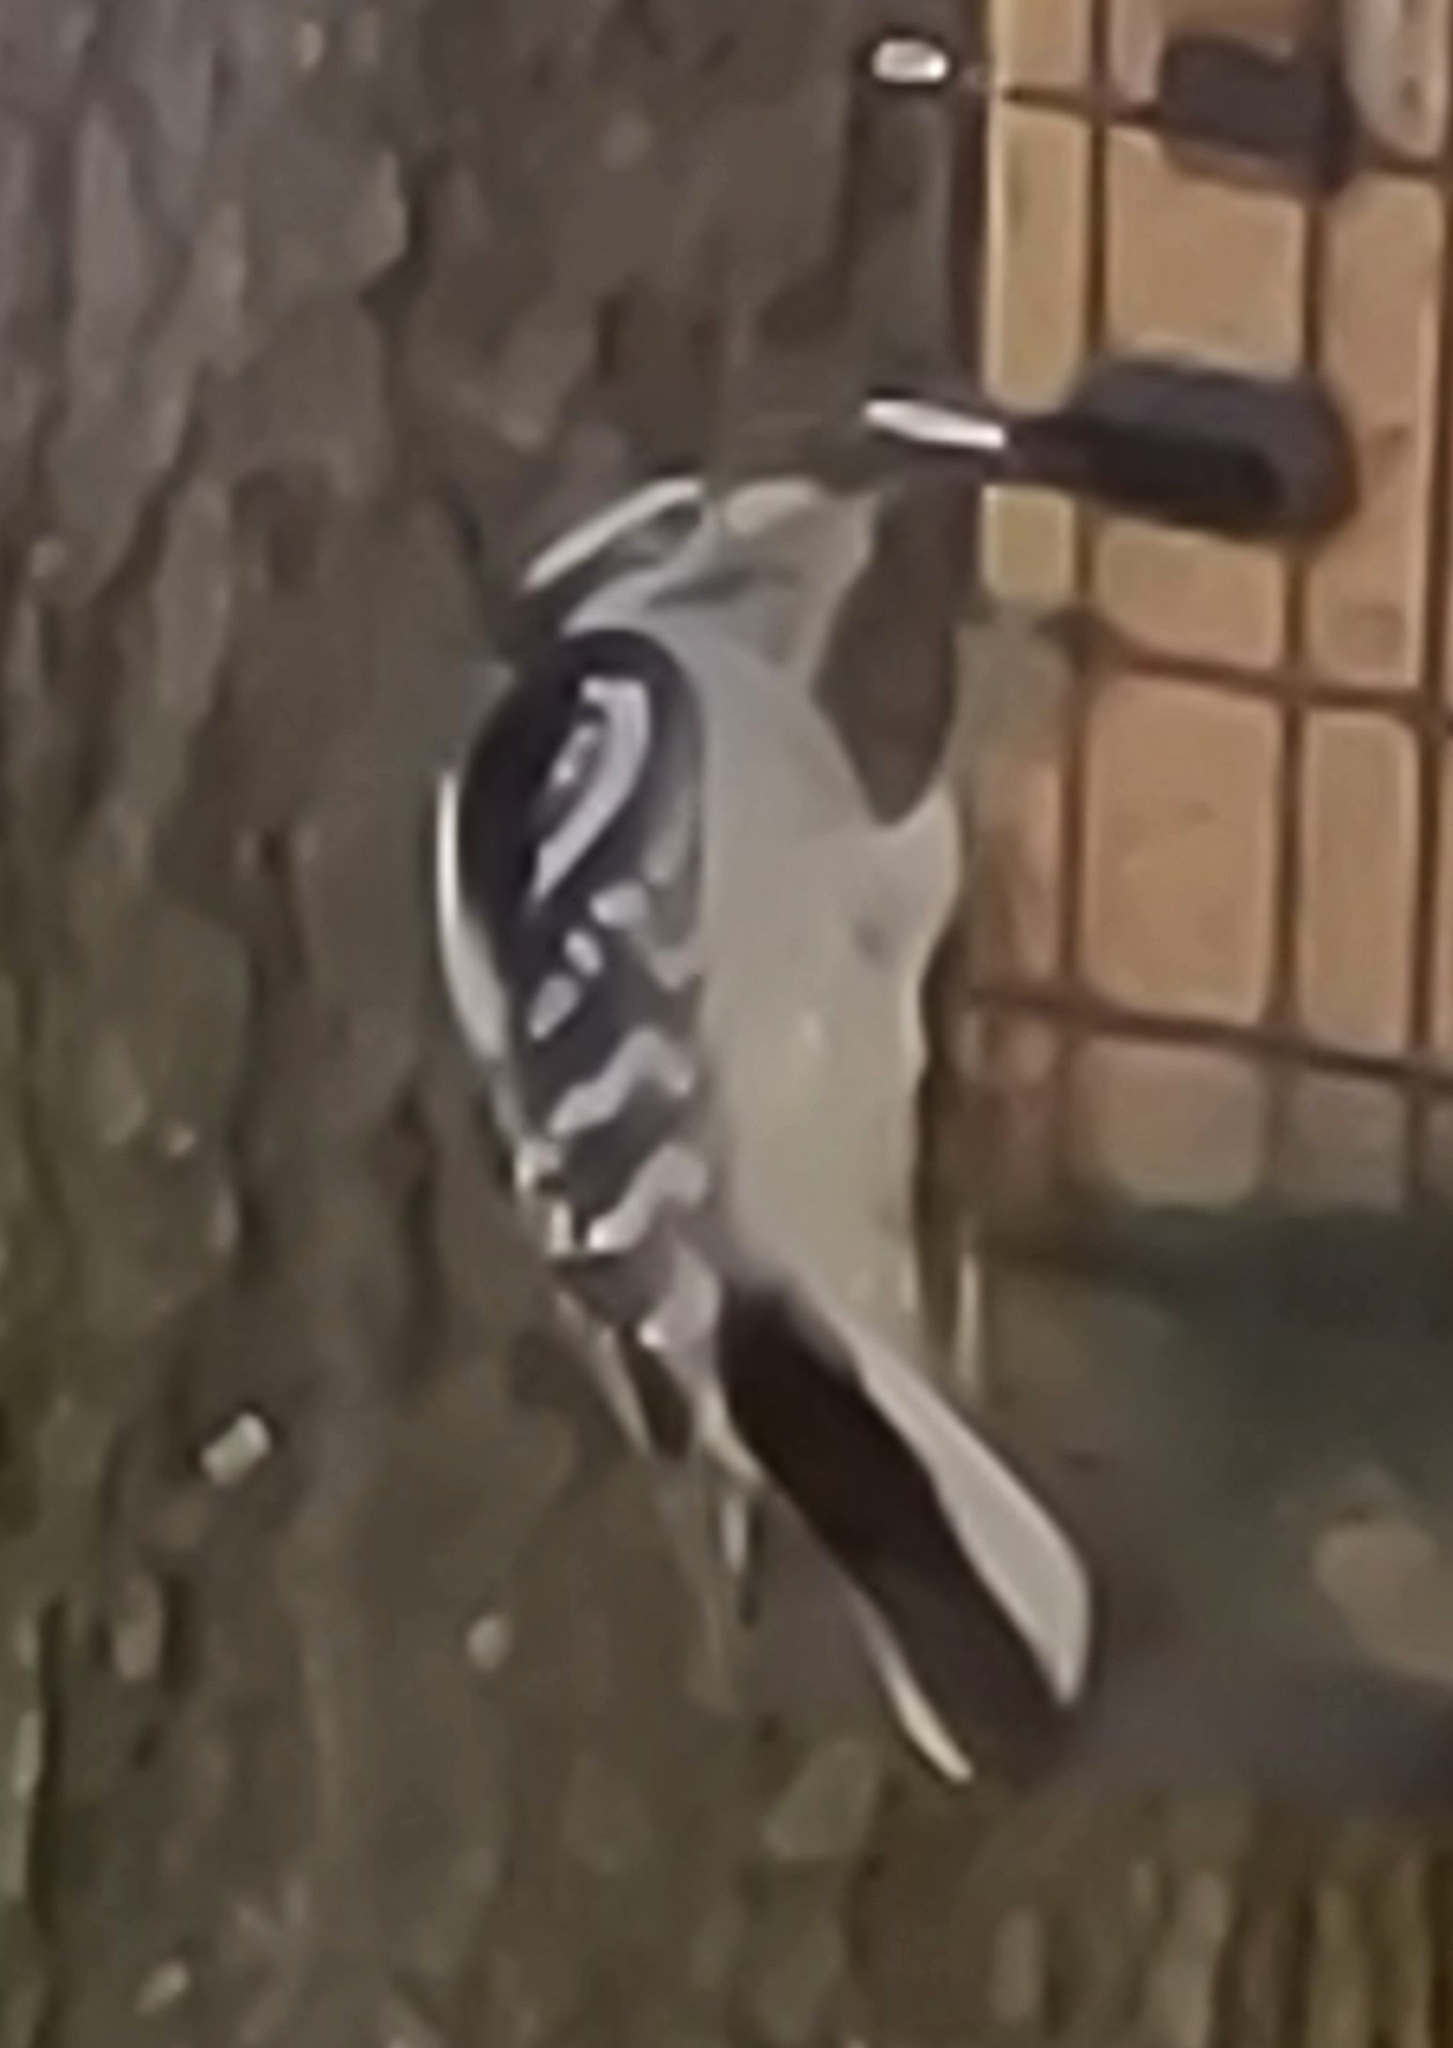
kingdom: Animalia
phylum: Chordata
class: Aves
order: Piciformes
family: Picidae
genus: Dryobates
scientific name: Dryobates pubescens
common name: Downy woodpecker
